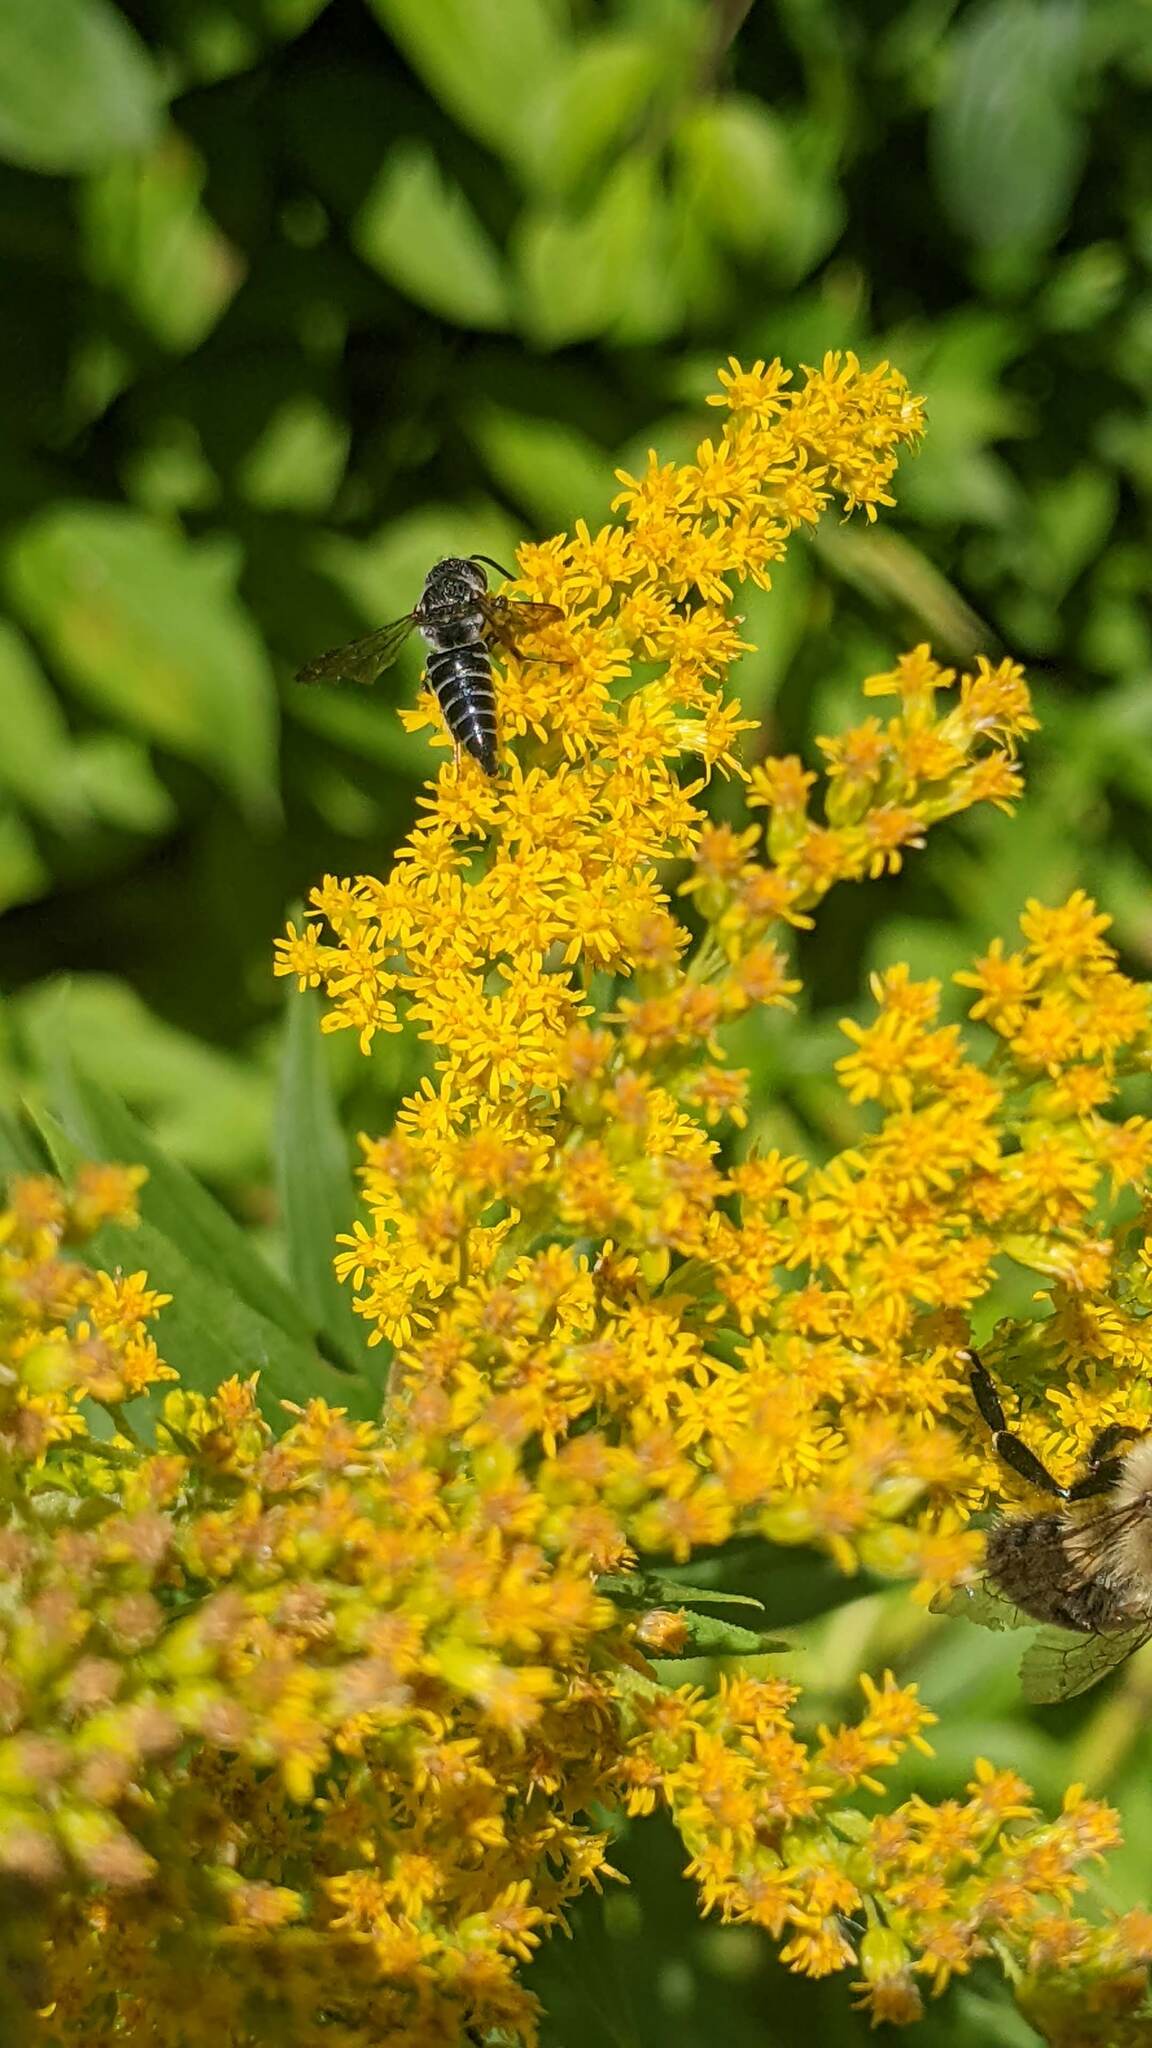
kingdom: Animalia
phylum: Arthropoda
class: Insecta
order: Hymenoptera
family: Megachilidae
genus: Coelioxys
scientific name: Coelioxys modestus
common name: Modest sharptail
